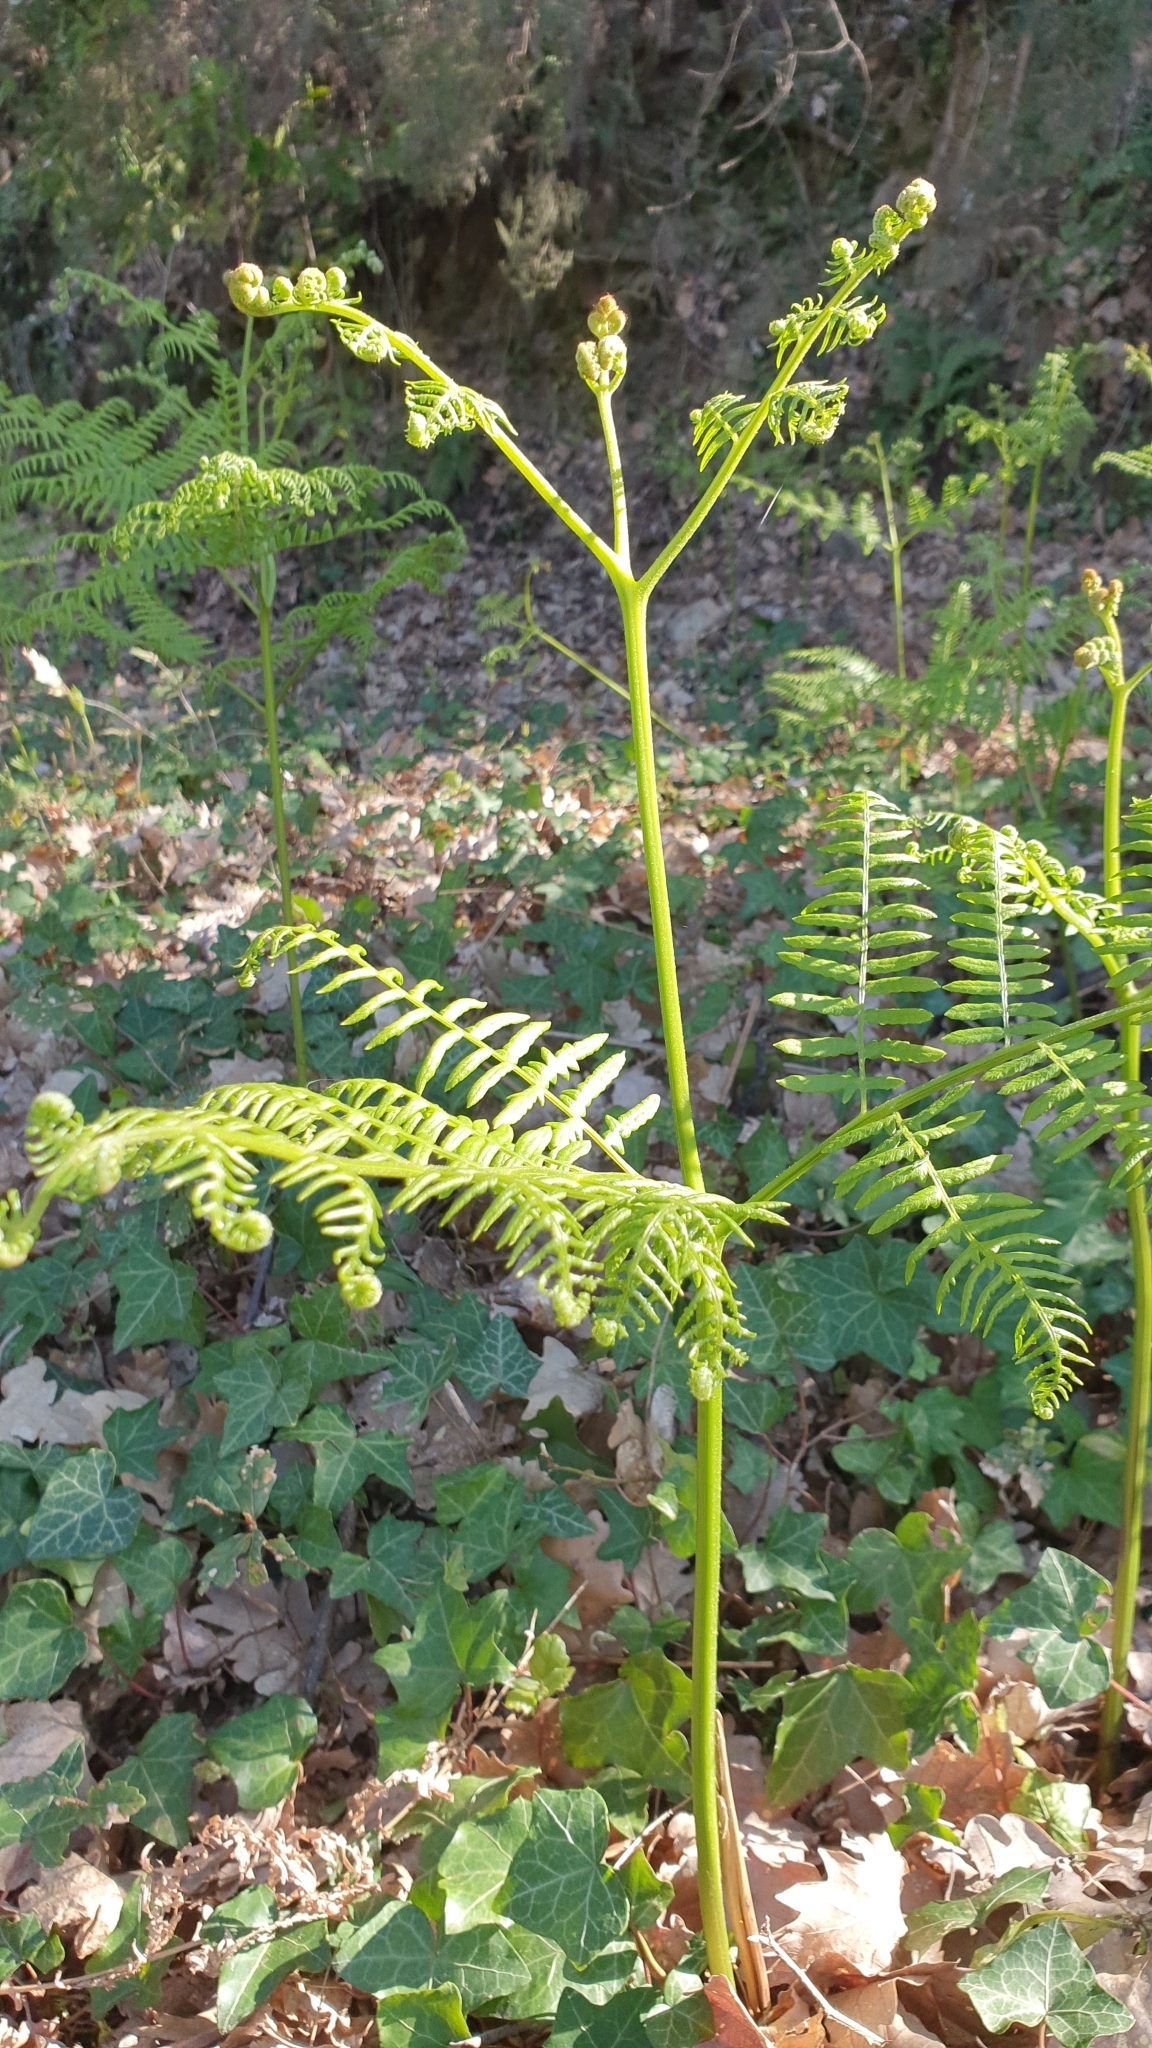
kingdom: Plantae
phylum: Tracheophyta
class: Polypodiopsida
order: Polypodiales
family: Dennstaedtiaceae
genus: Pteridium
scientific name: Pteridium aquilinum
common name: Bracken
